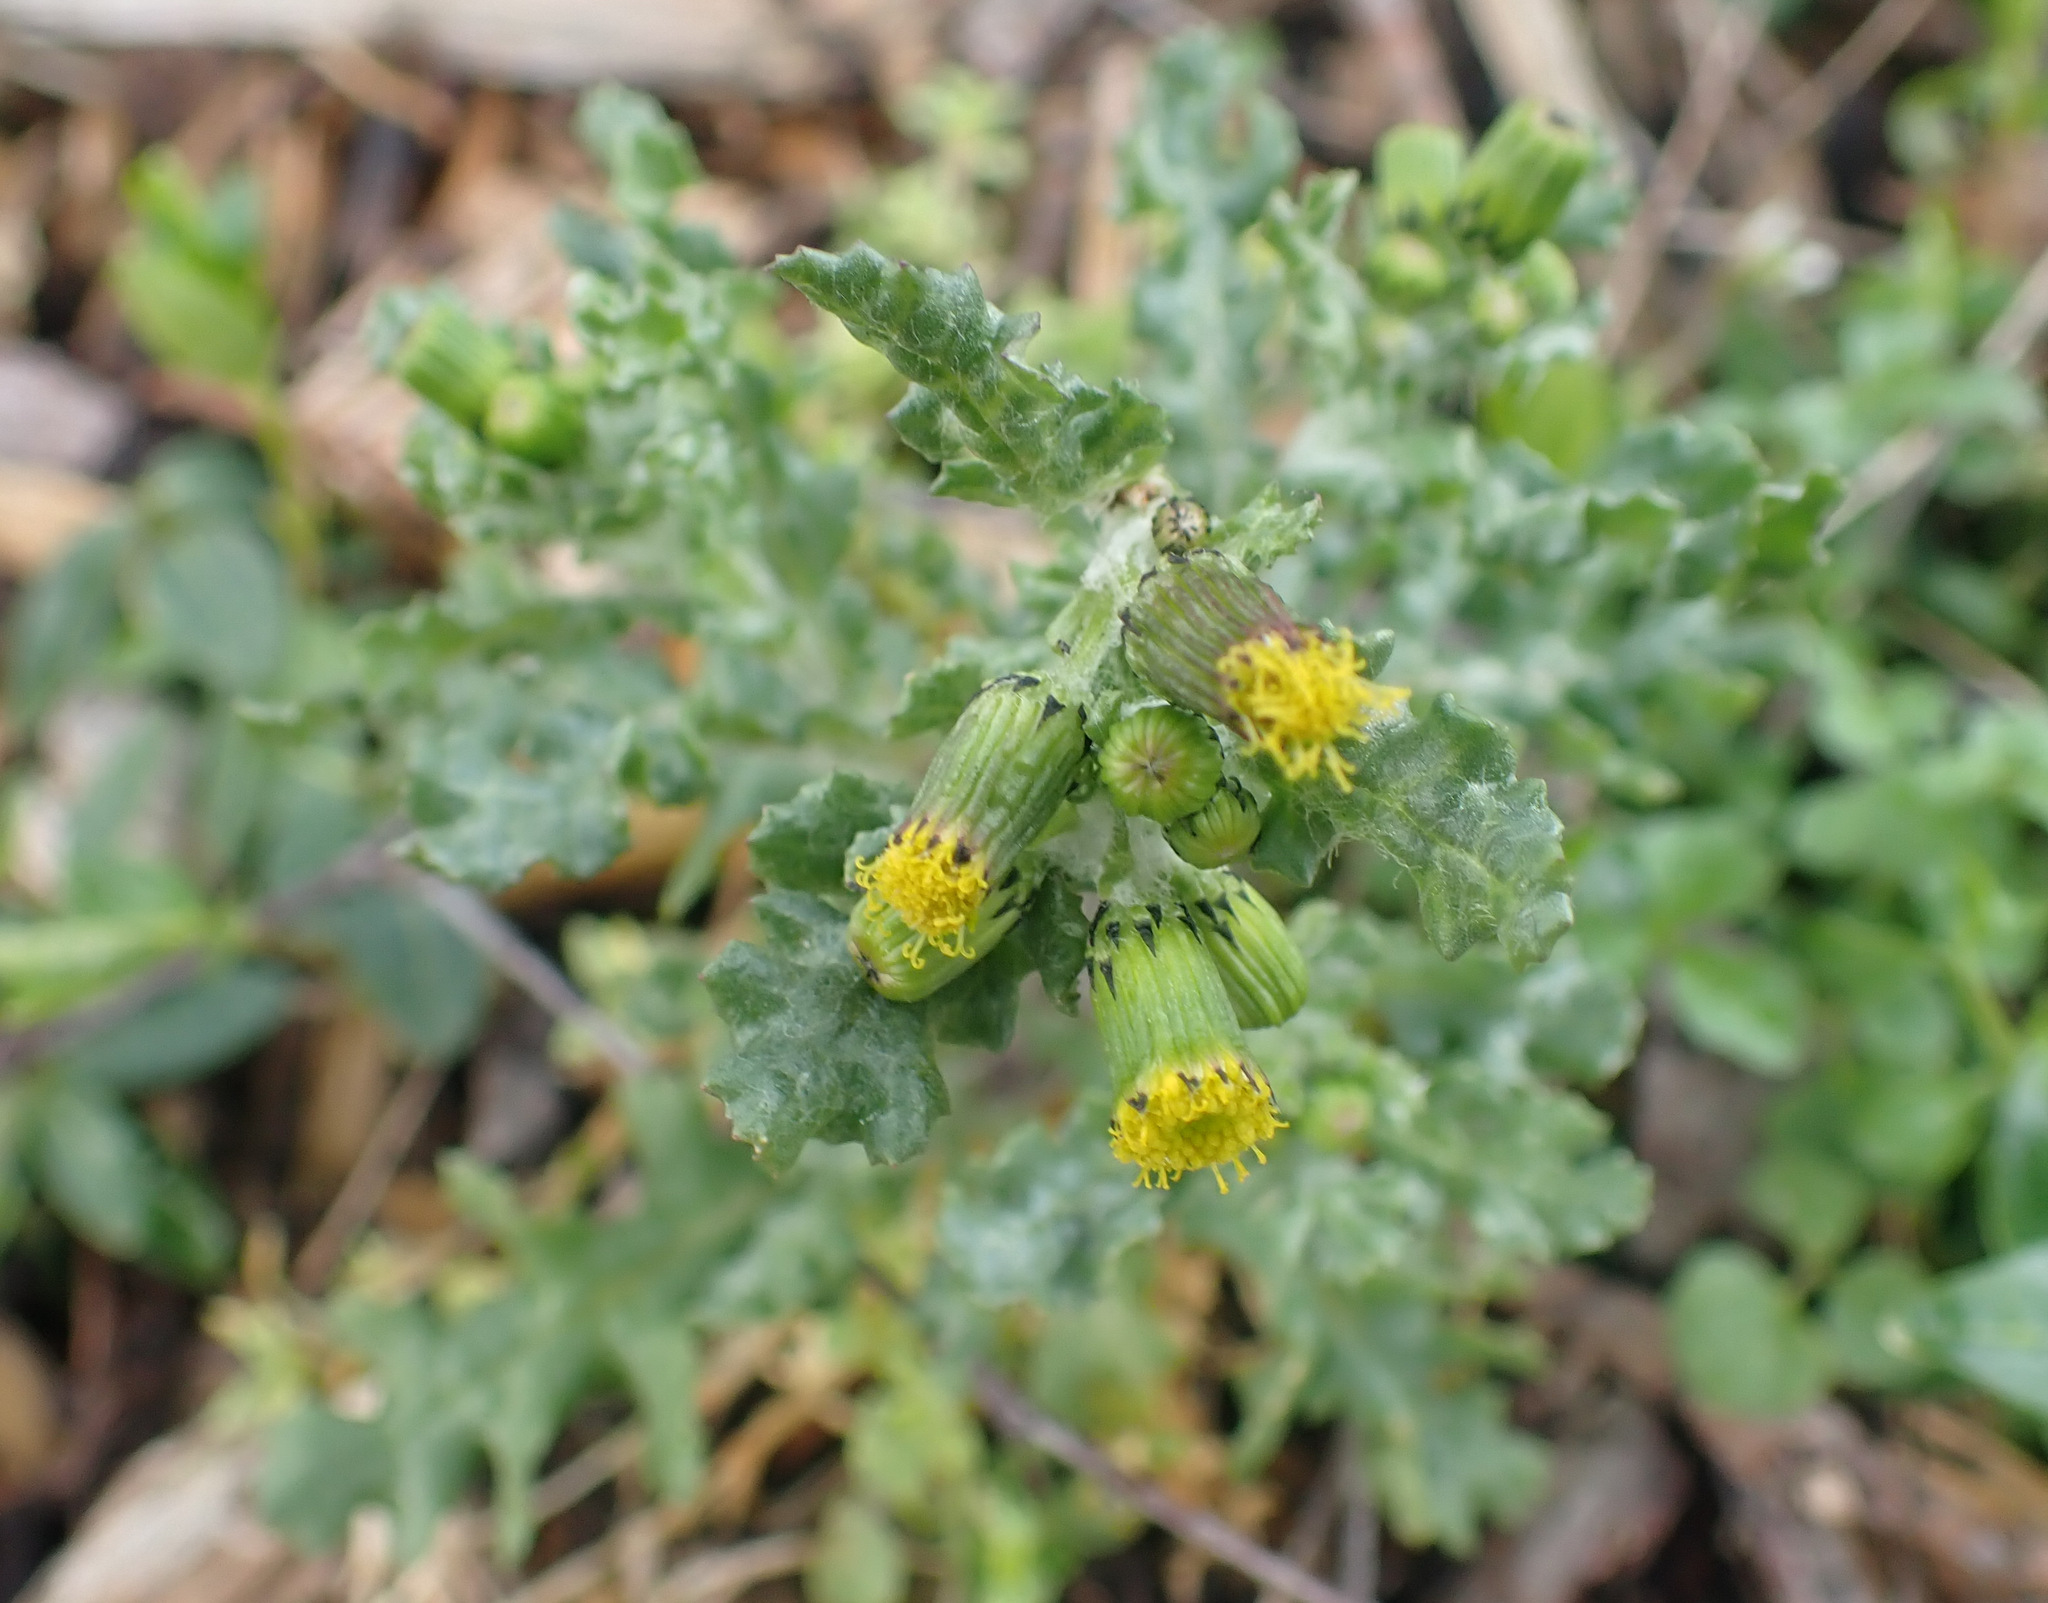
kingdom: Plantae
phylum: Tracheophyta
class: Magnoliopsida
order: Asterales
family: Asteraceae
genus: Senecio
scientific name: Senecio vulgaris
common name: Old-man-in-the-spring
